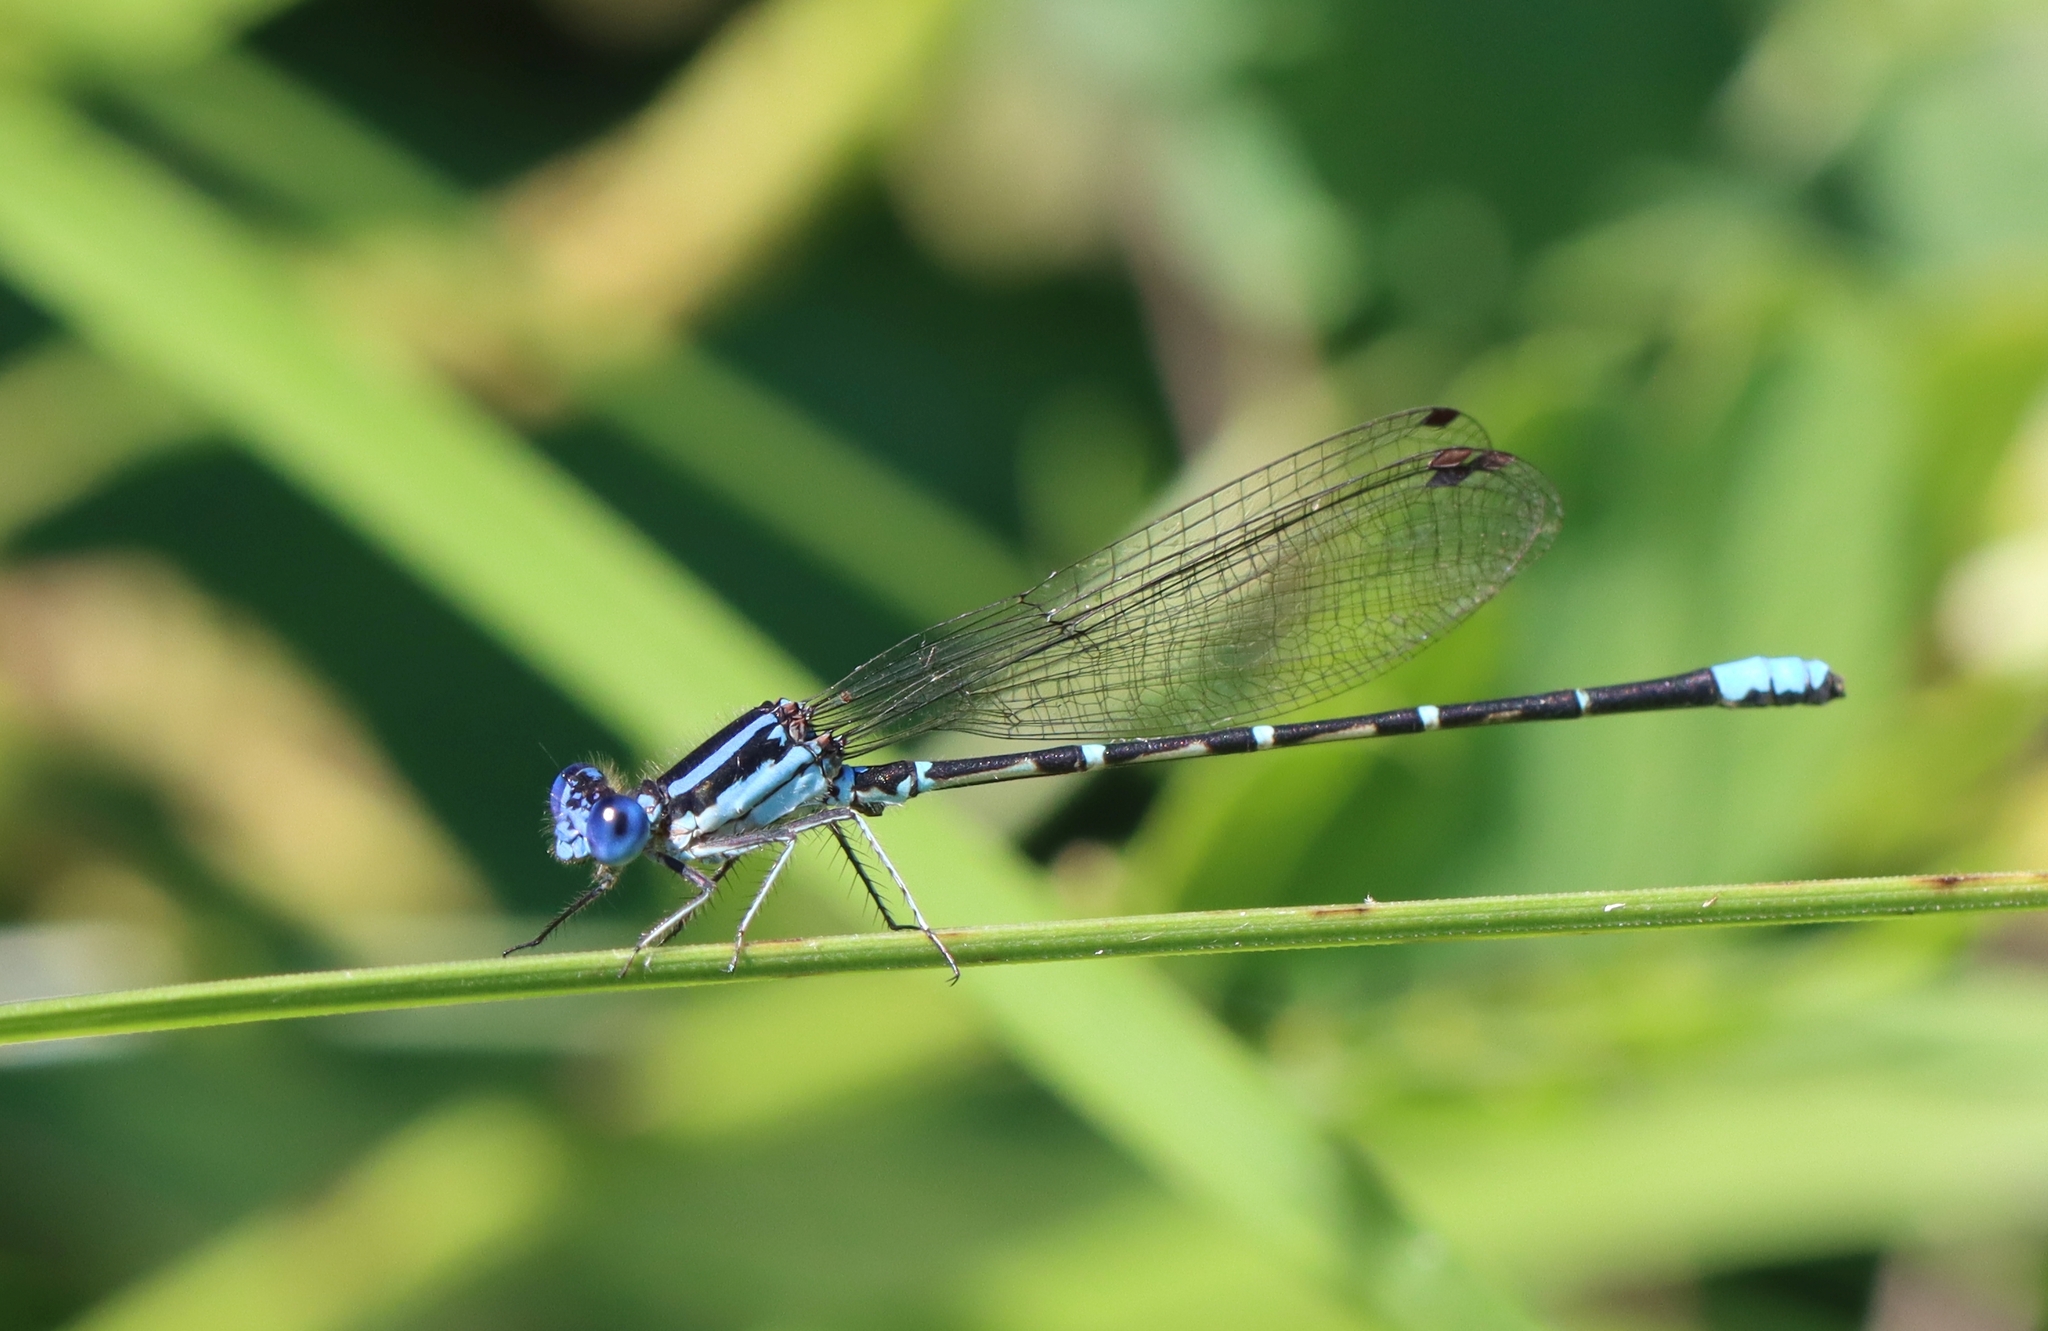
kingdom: Animalia
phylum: Arthropoda
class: Insecta
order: Odonata
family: Coenagrionidae
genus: Argia
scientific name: Argia sedula
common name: Blue-ringed dancer
